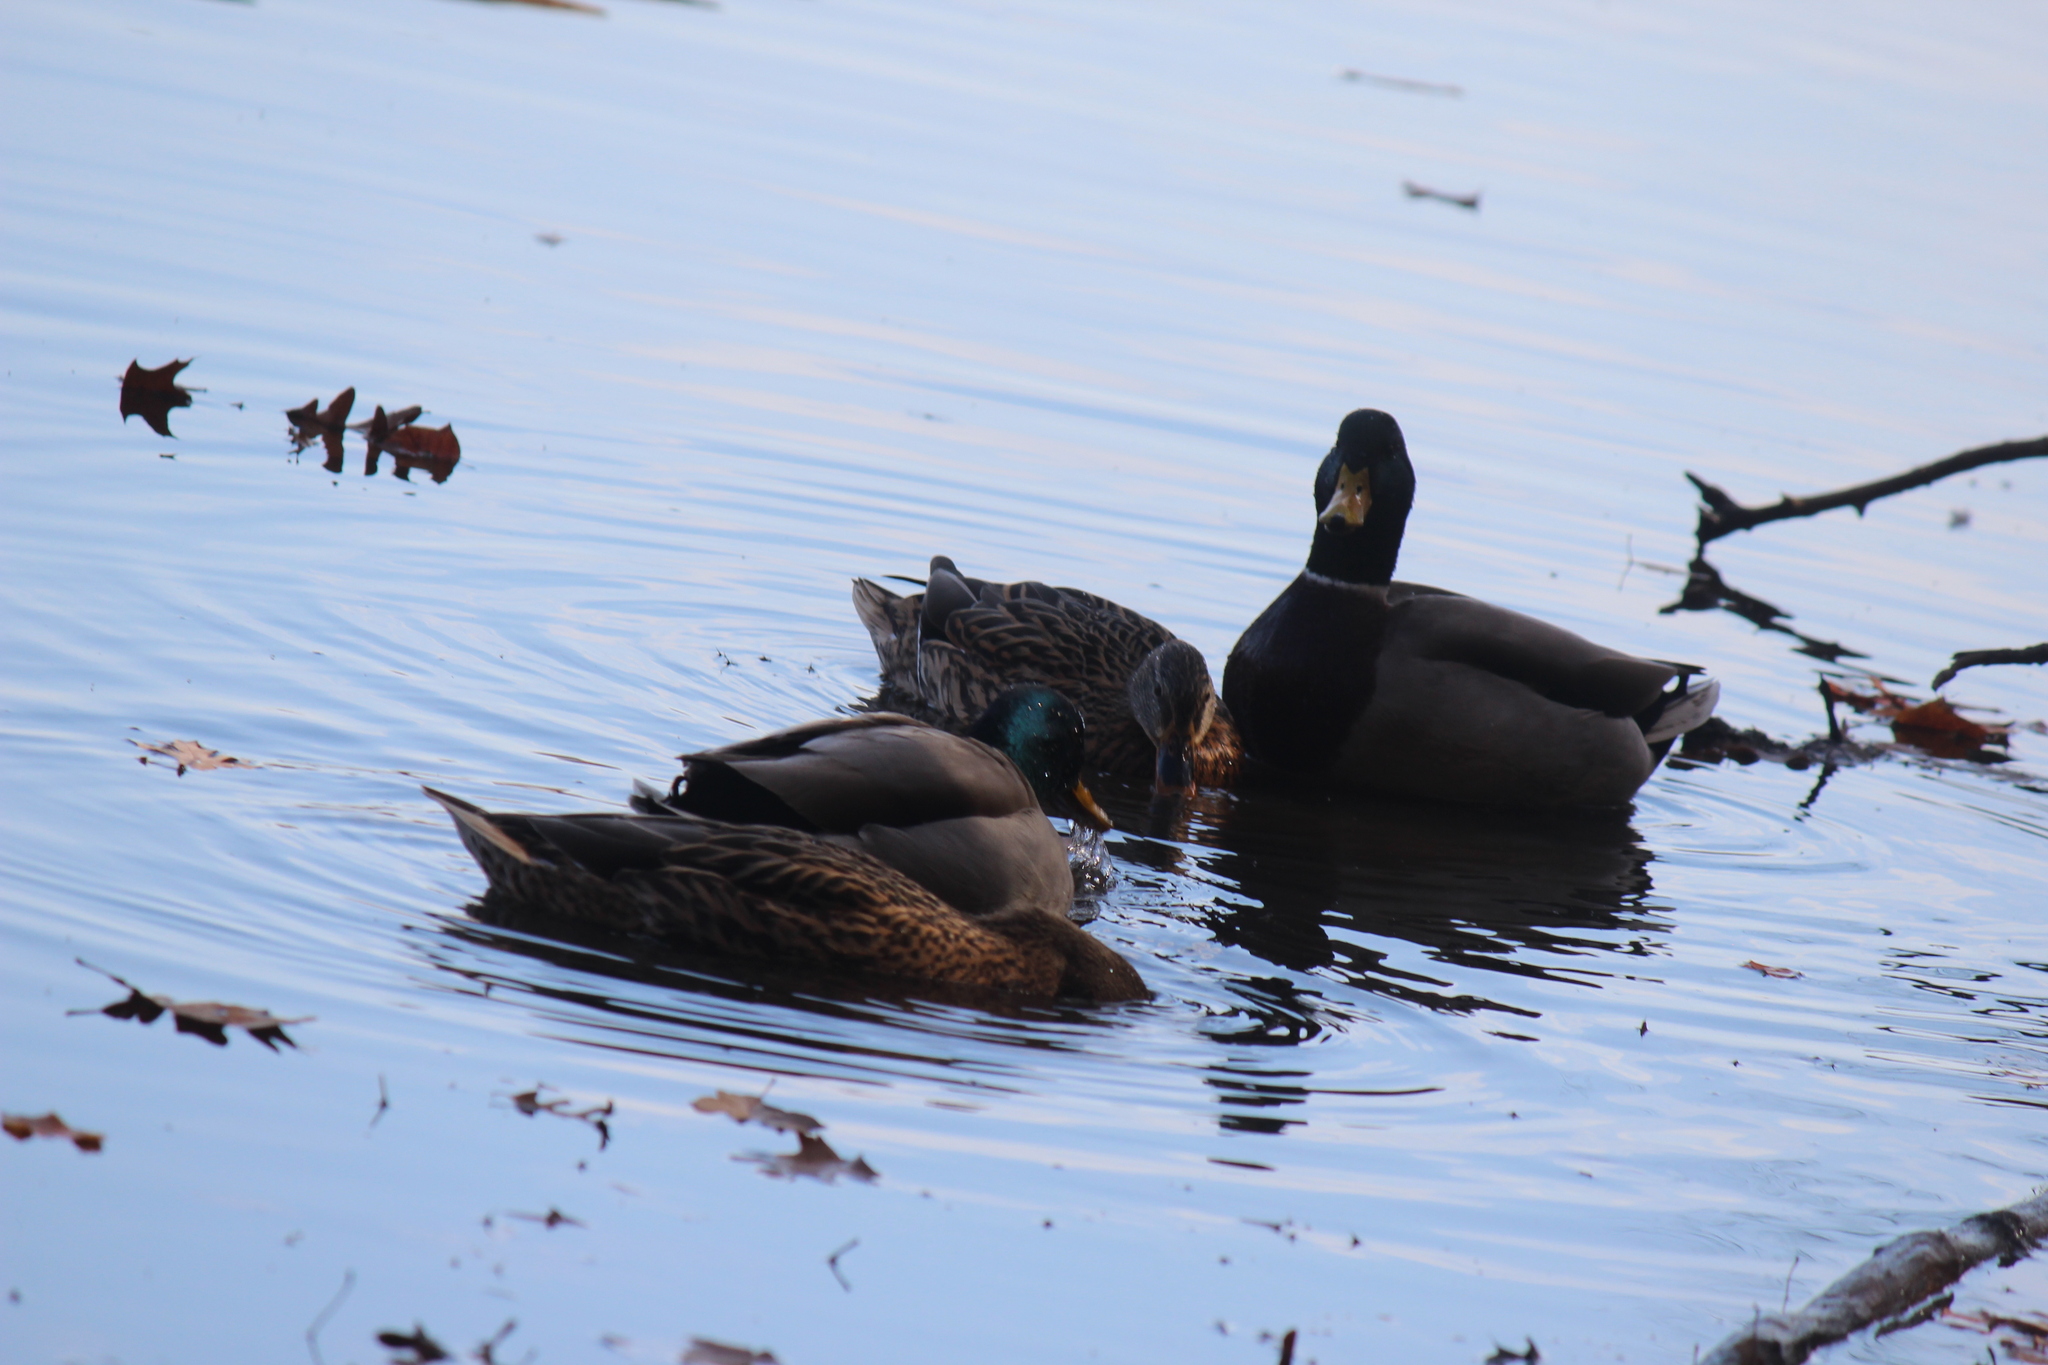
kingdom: Animalia
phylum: Chordata
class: Aves
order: Anseriformes
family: Anatidae
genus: Anas
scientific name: Anas platyrhynchos
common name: Mallard
